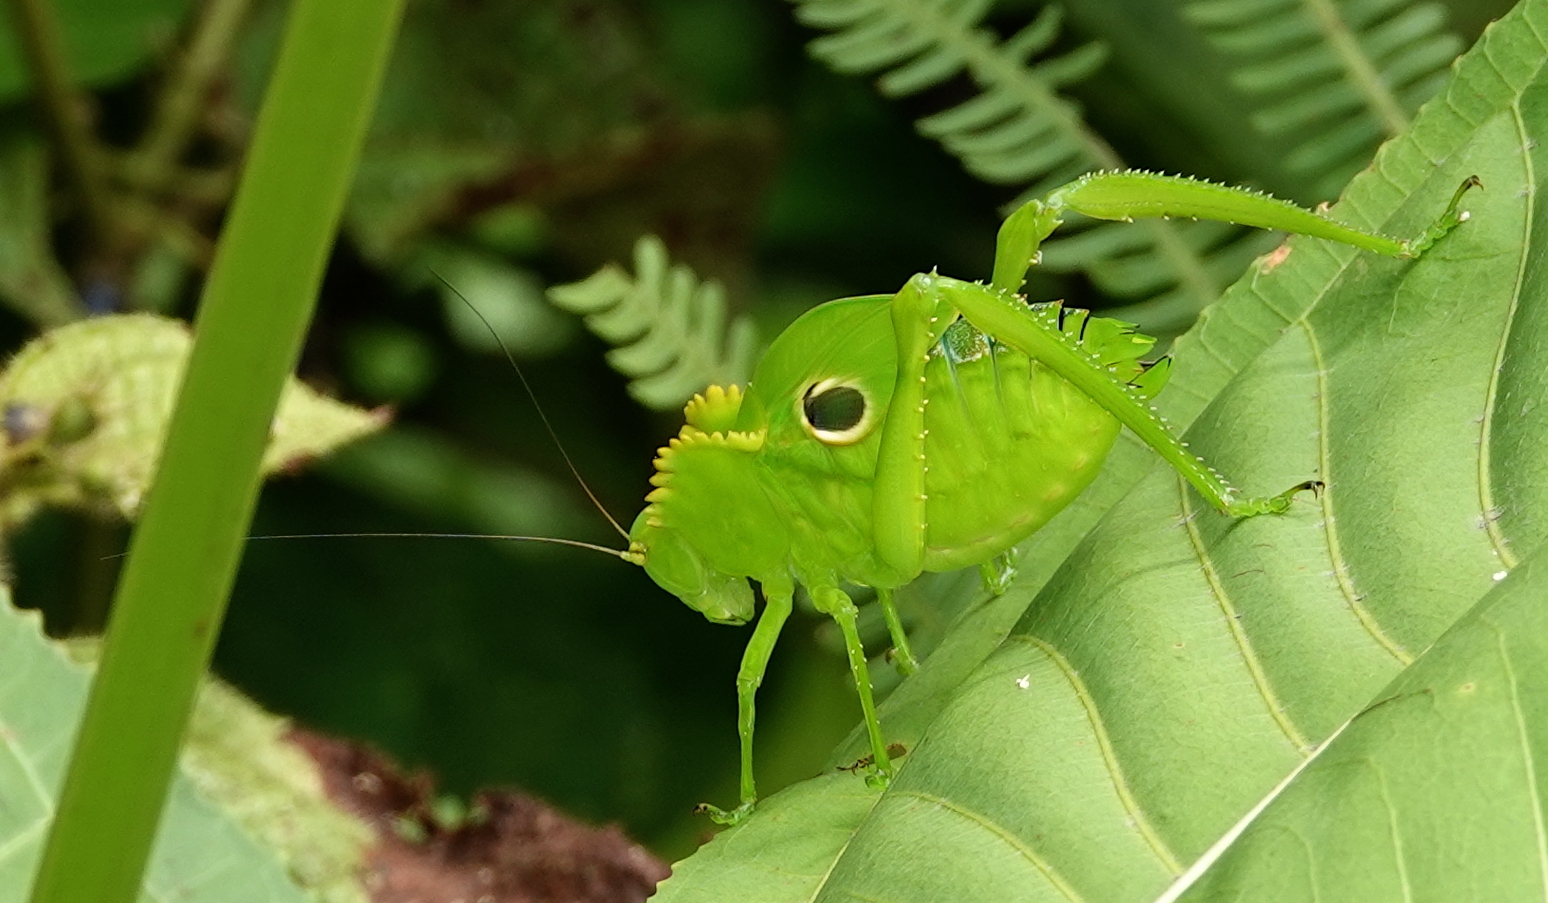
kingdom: Animalia
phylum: Arthropoda
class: Insecta
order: Orthoptera
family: Tettigoniidae
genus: Cnemidophyllum
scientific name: Cnemidophyllum citrifolium
